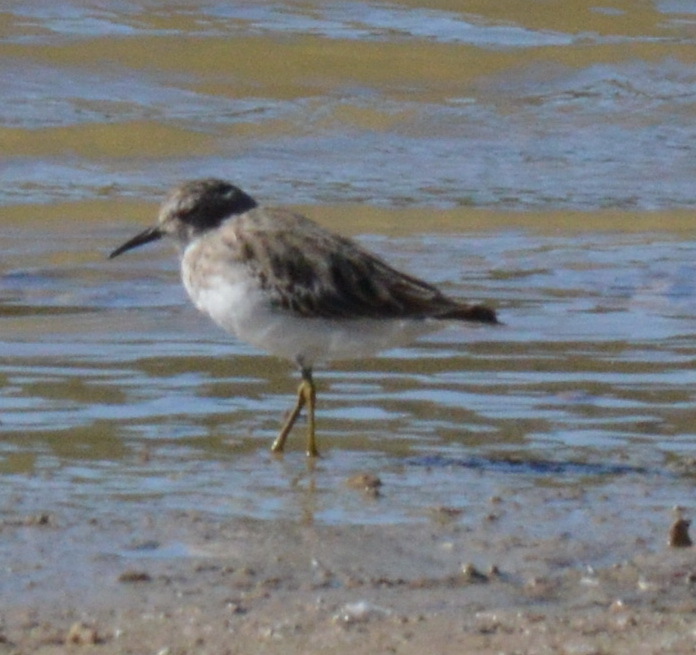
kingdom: Animalia
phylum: Chordata
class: Aves
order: Charadriiformes
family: Scolopacidae
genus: Calidris
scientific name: Calidris minutilla
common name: Least sandpiper
